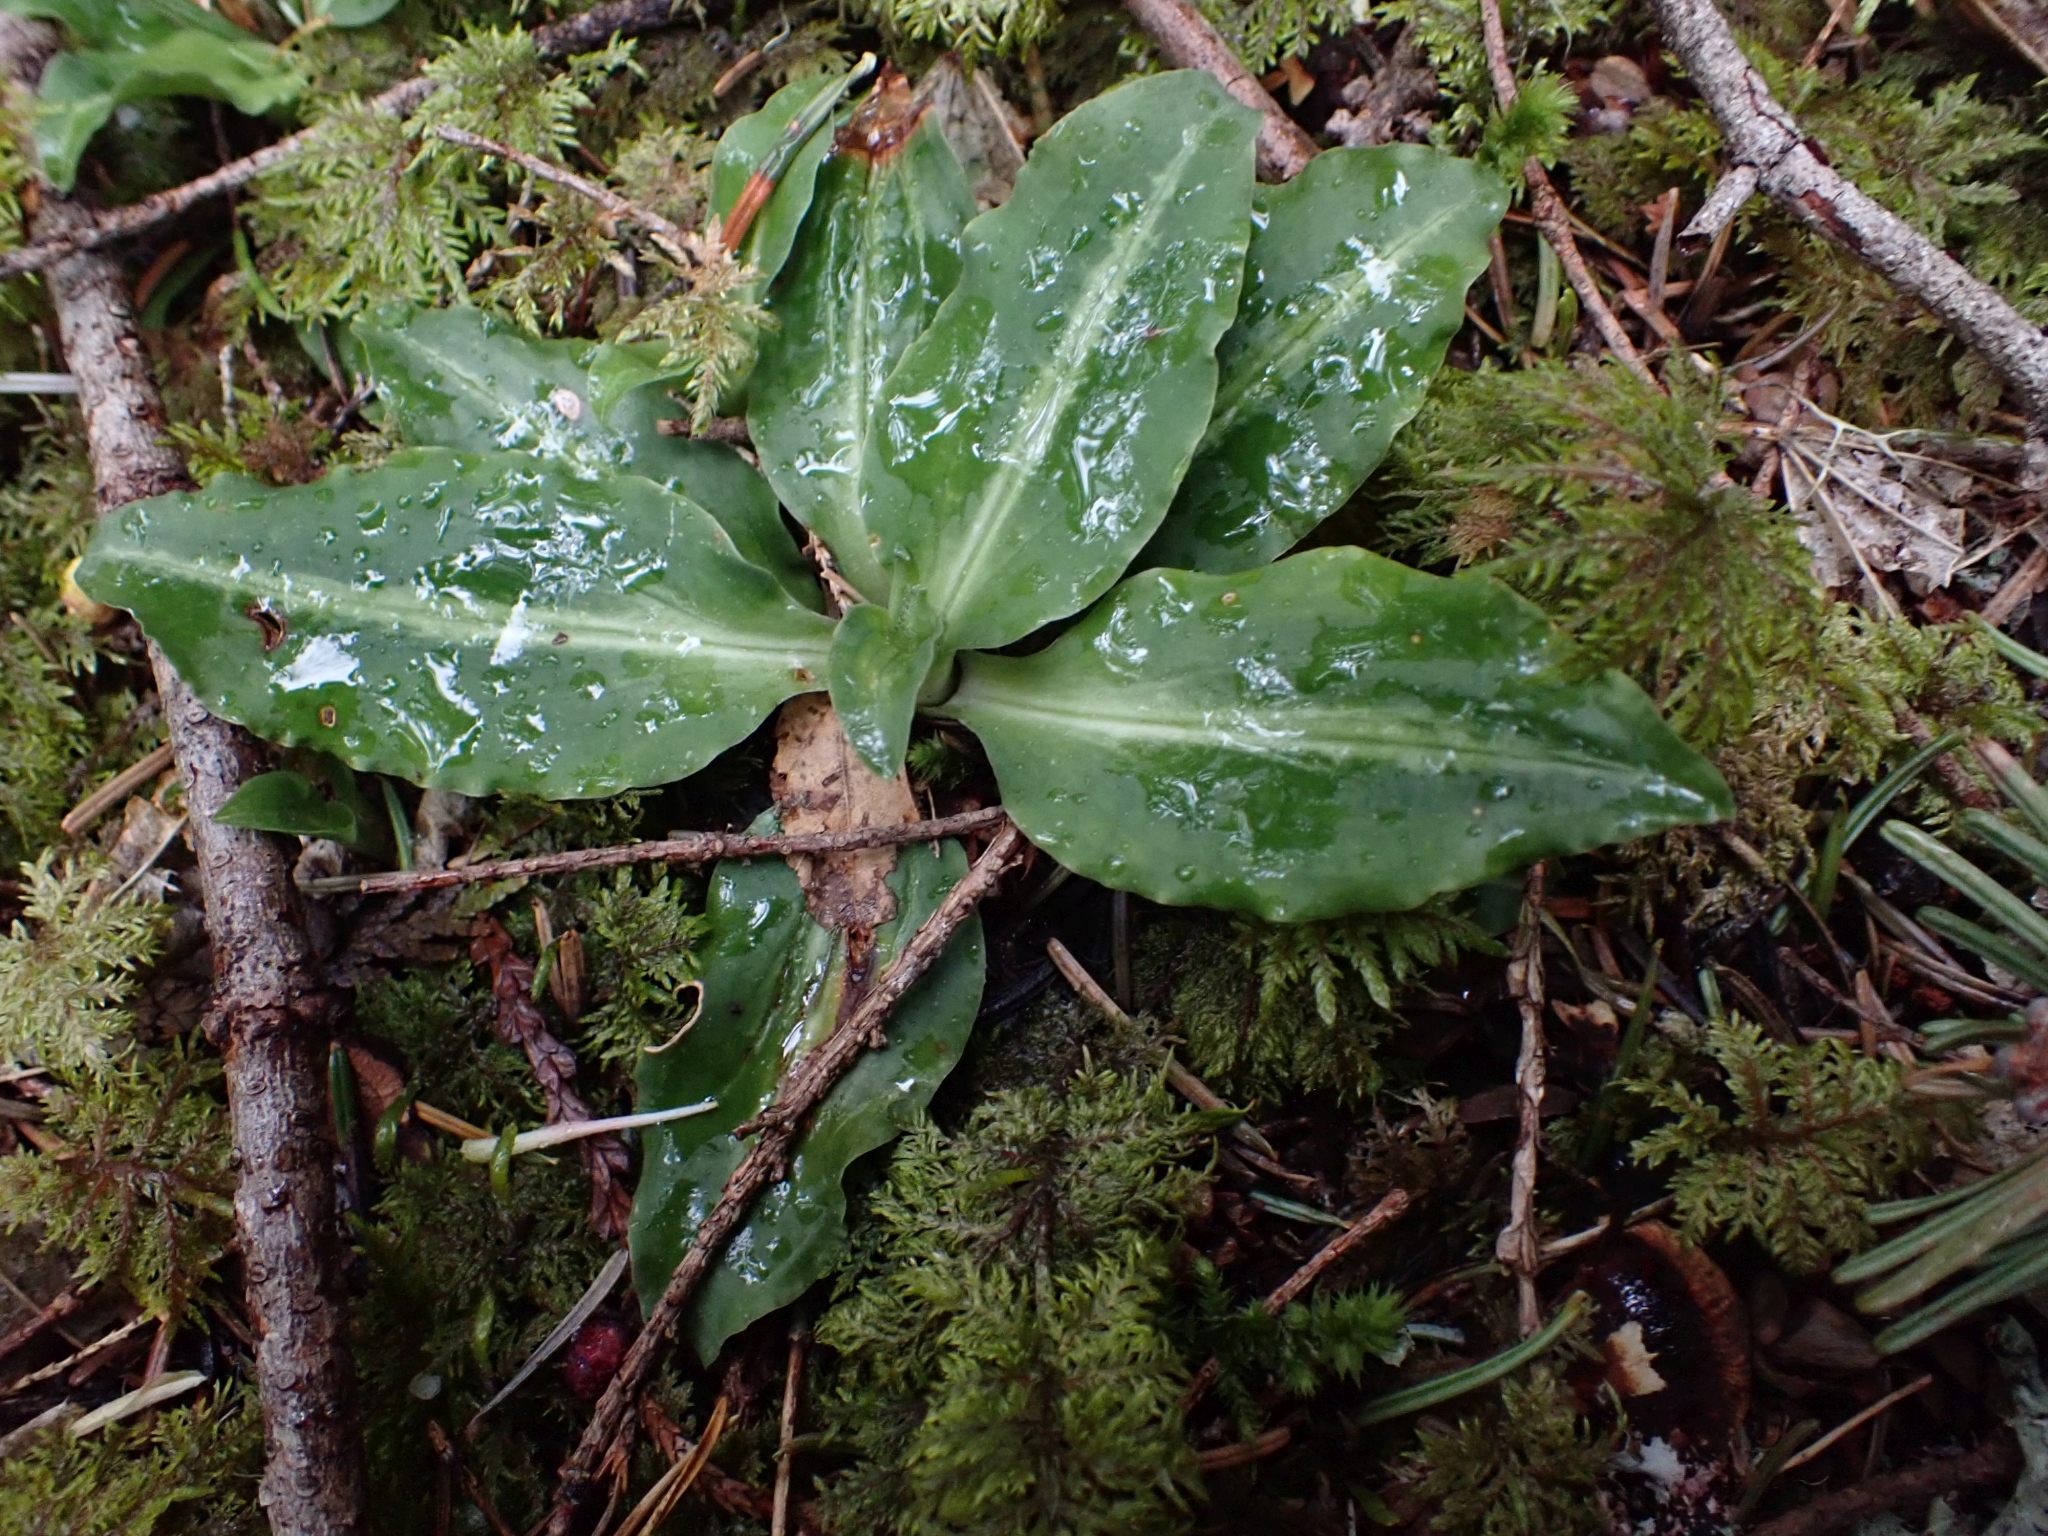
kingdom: Plantae
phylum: Tracheophyta
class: Liliopsida
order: Asparagales
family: Orchidaceae
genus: Goodyera
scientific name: Goodyera oblongifolia
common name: Giant rattlesnake-plantain
